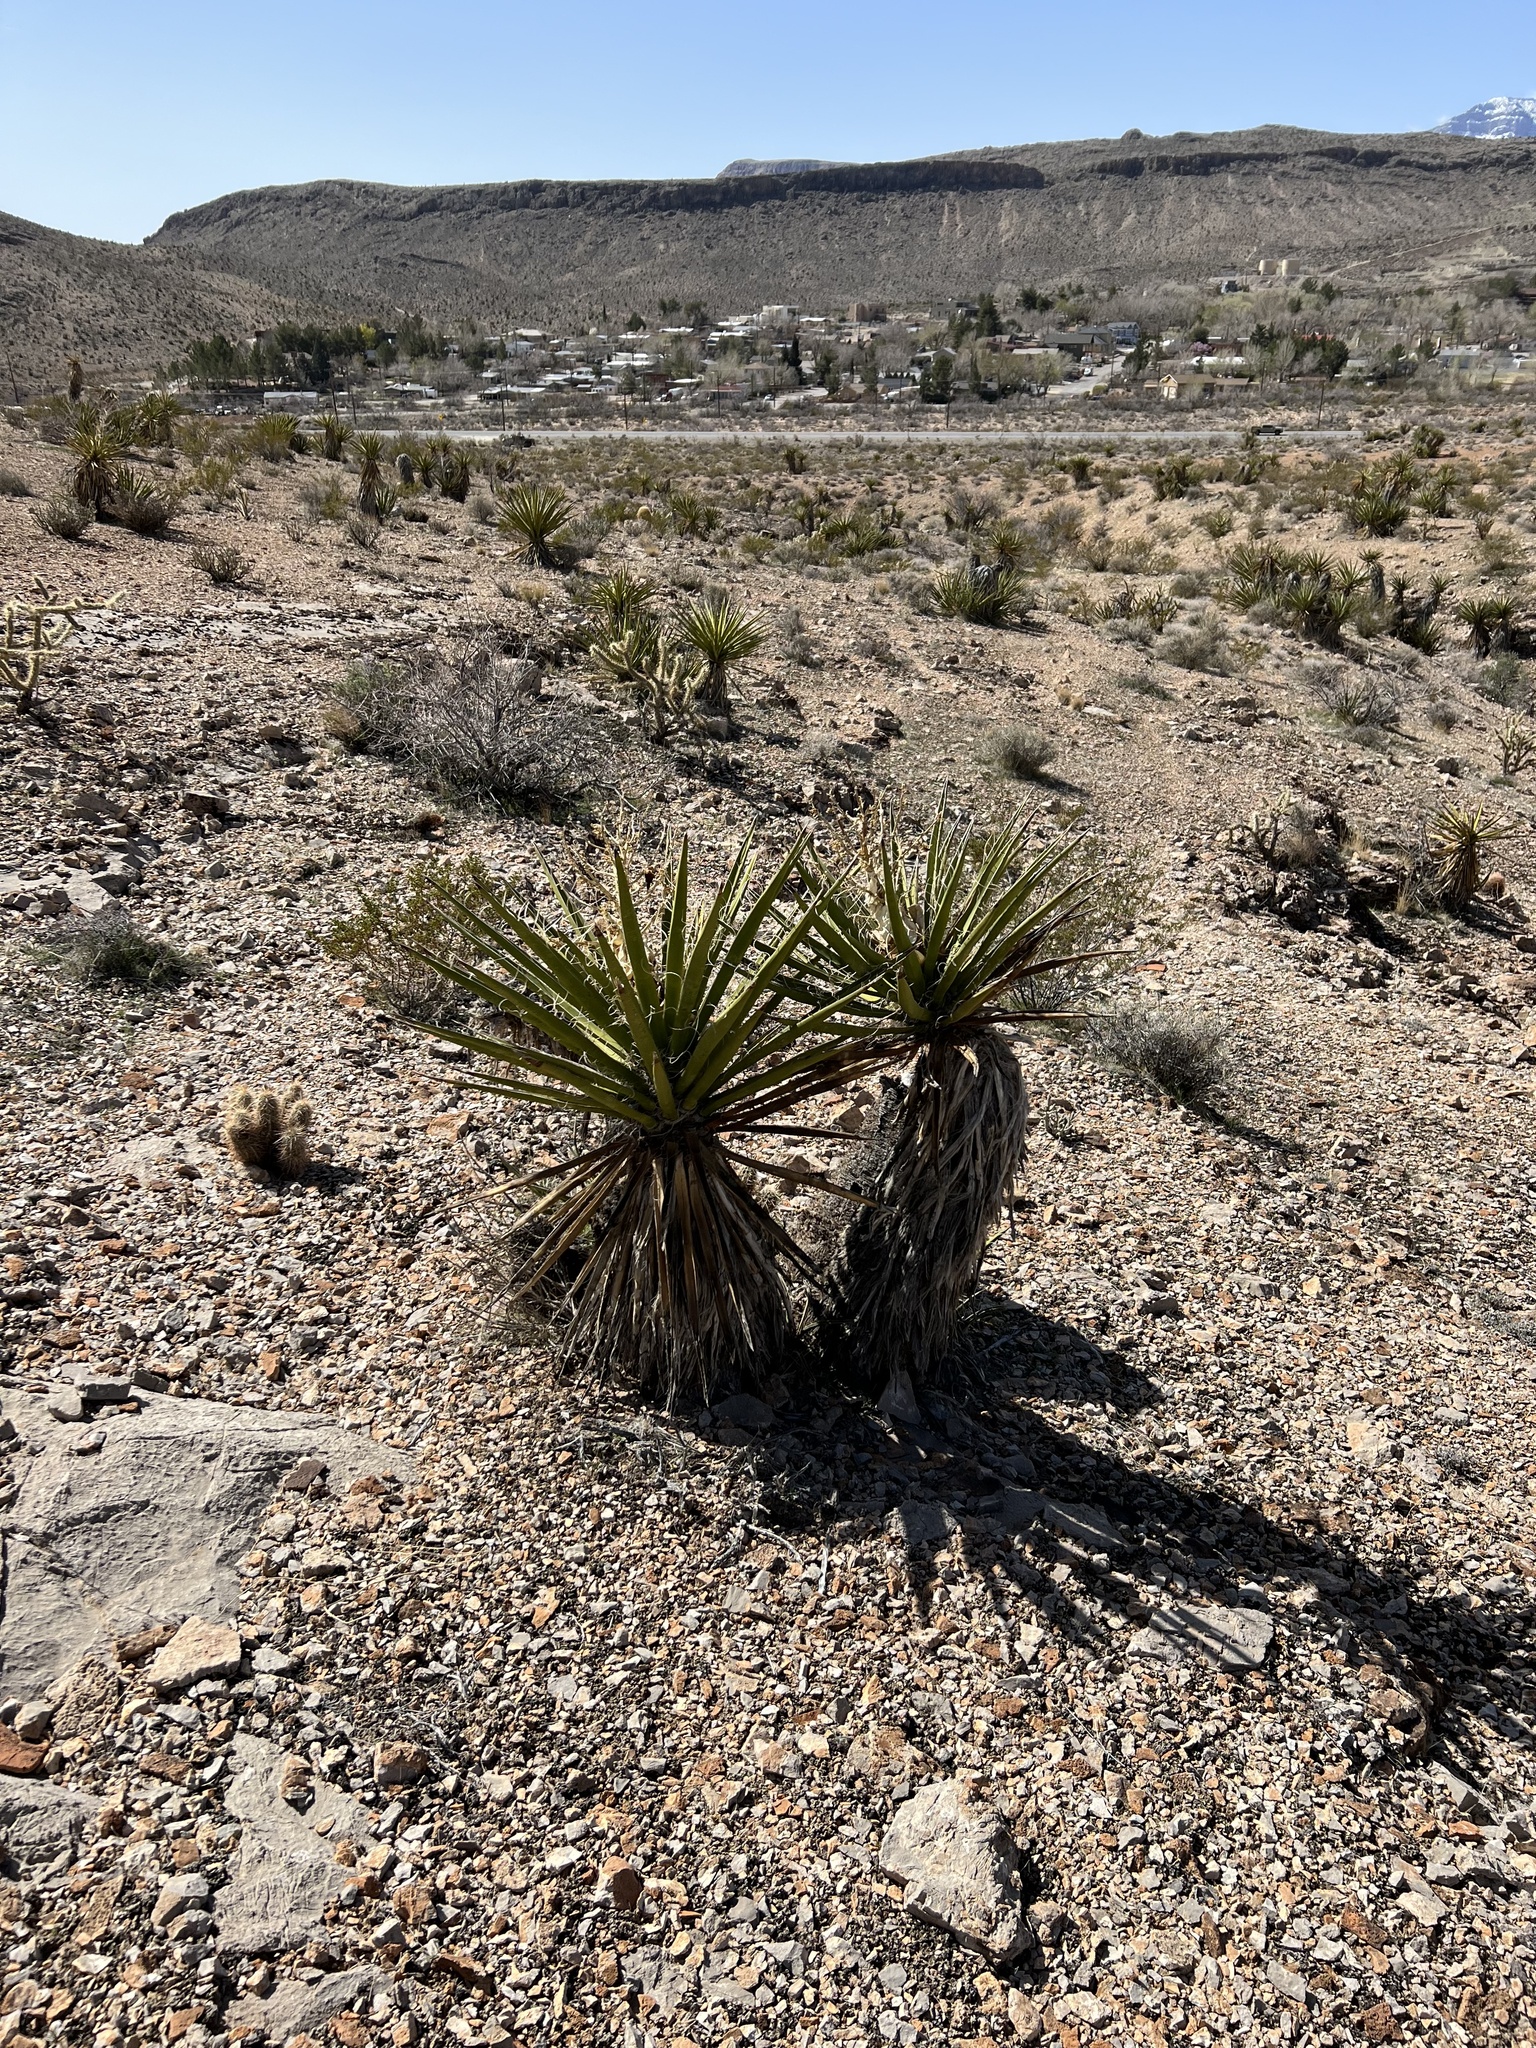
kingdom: Plantae
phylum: Tracheophyta
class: Liliopsida
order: Asparagales
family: Asparagaceae
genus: Yucca
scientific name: Yucca schidigera
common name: Mojave yucca
